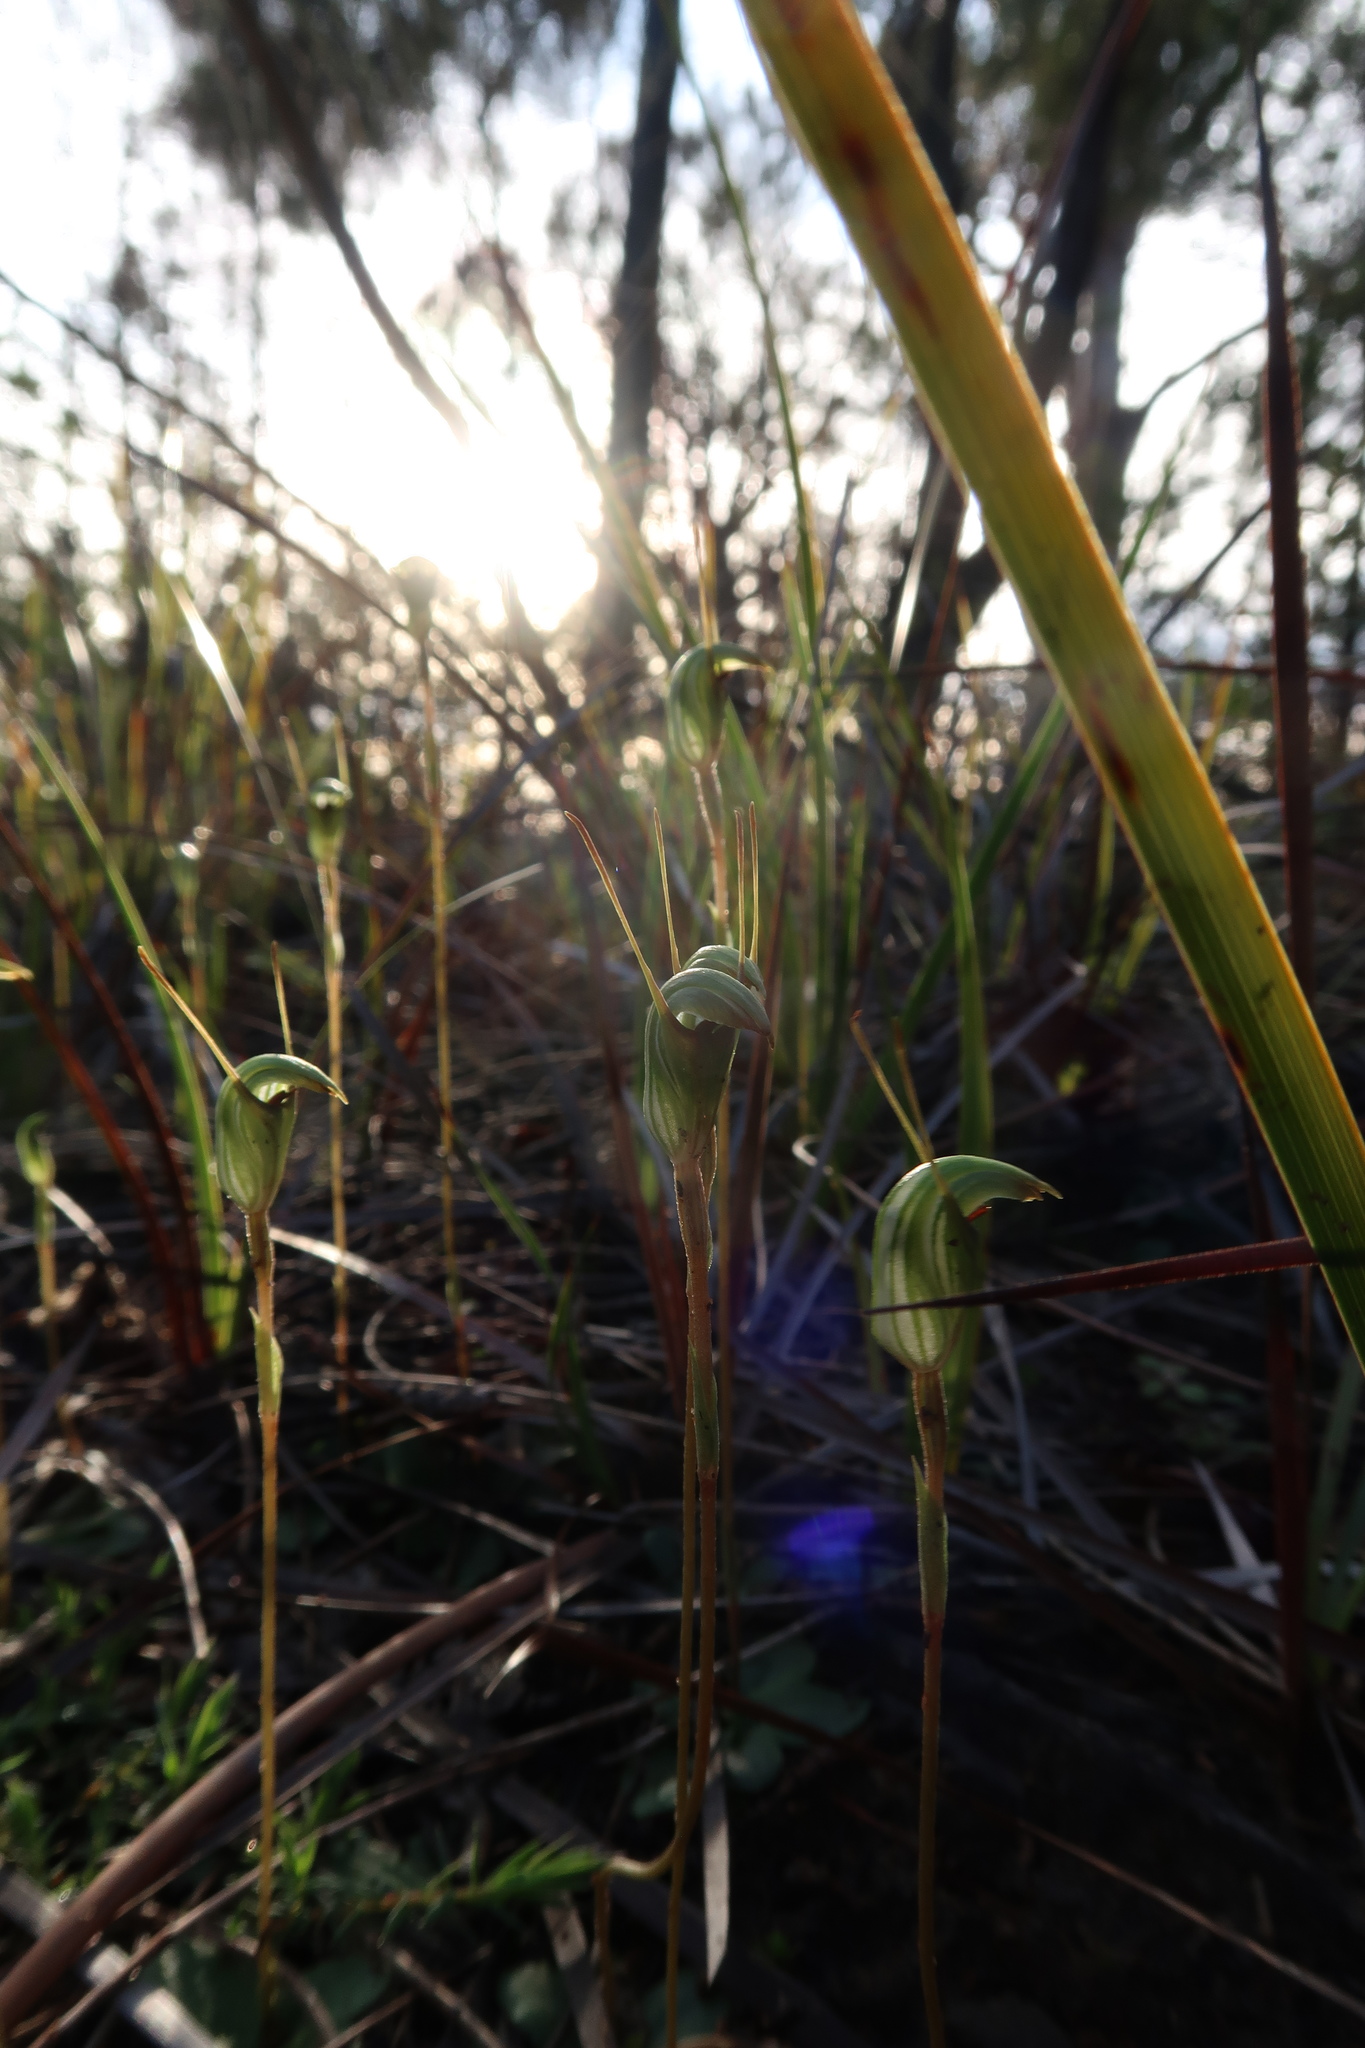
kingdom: Plantae
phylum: Tracheophyta
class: Liliopsida
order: Asparagales
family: Orchidaceae
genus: Pterostylis
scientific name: Pterostylis concinna
